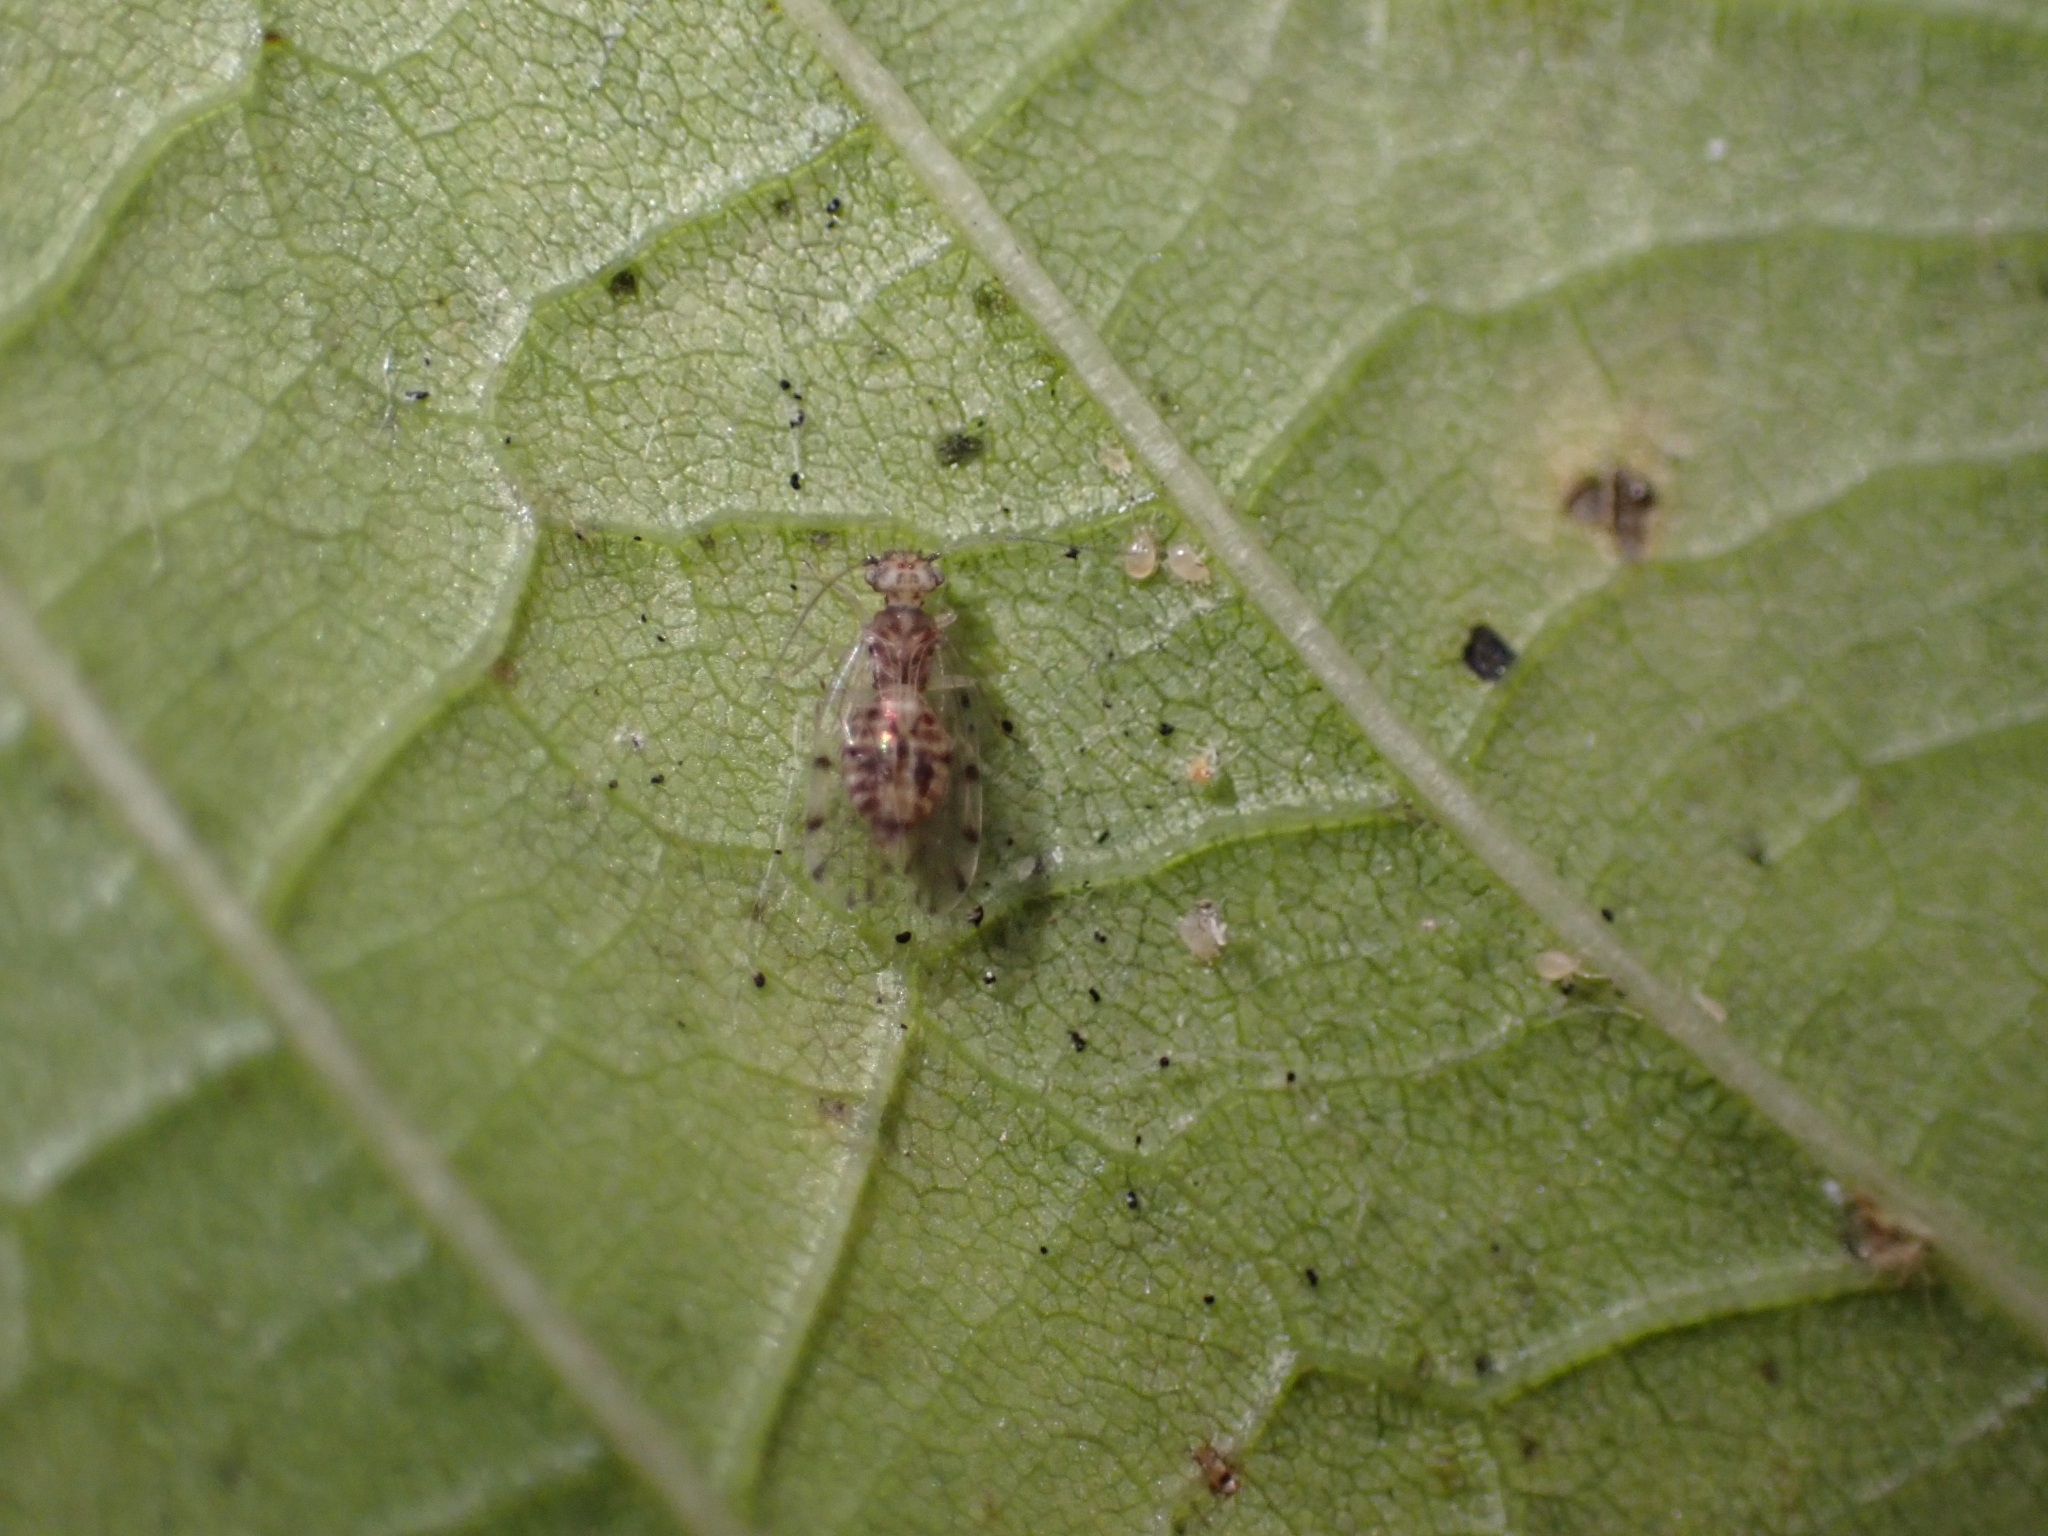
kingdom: Animalia
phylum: Arthropoda
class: Insecta
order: Psocodea
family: Ectopsocidae
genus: Ectopsocus
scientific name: Ectopsocus petersi
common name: Medium-sized bark louse
